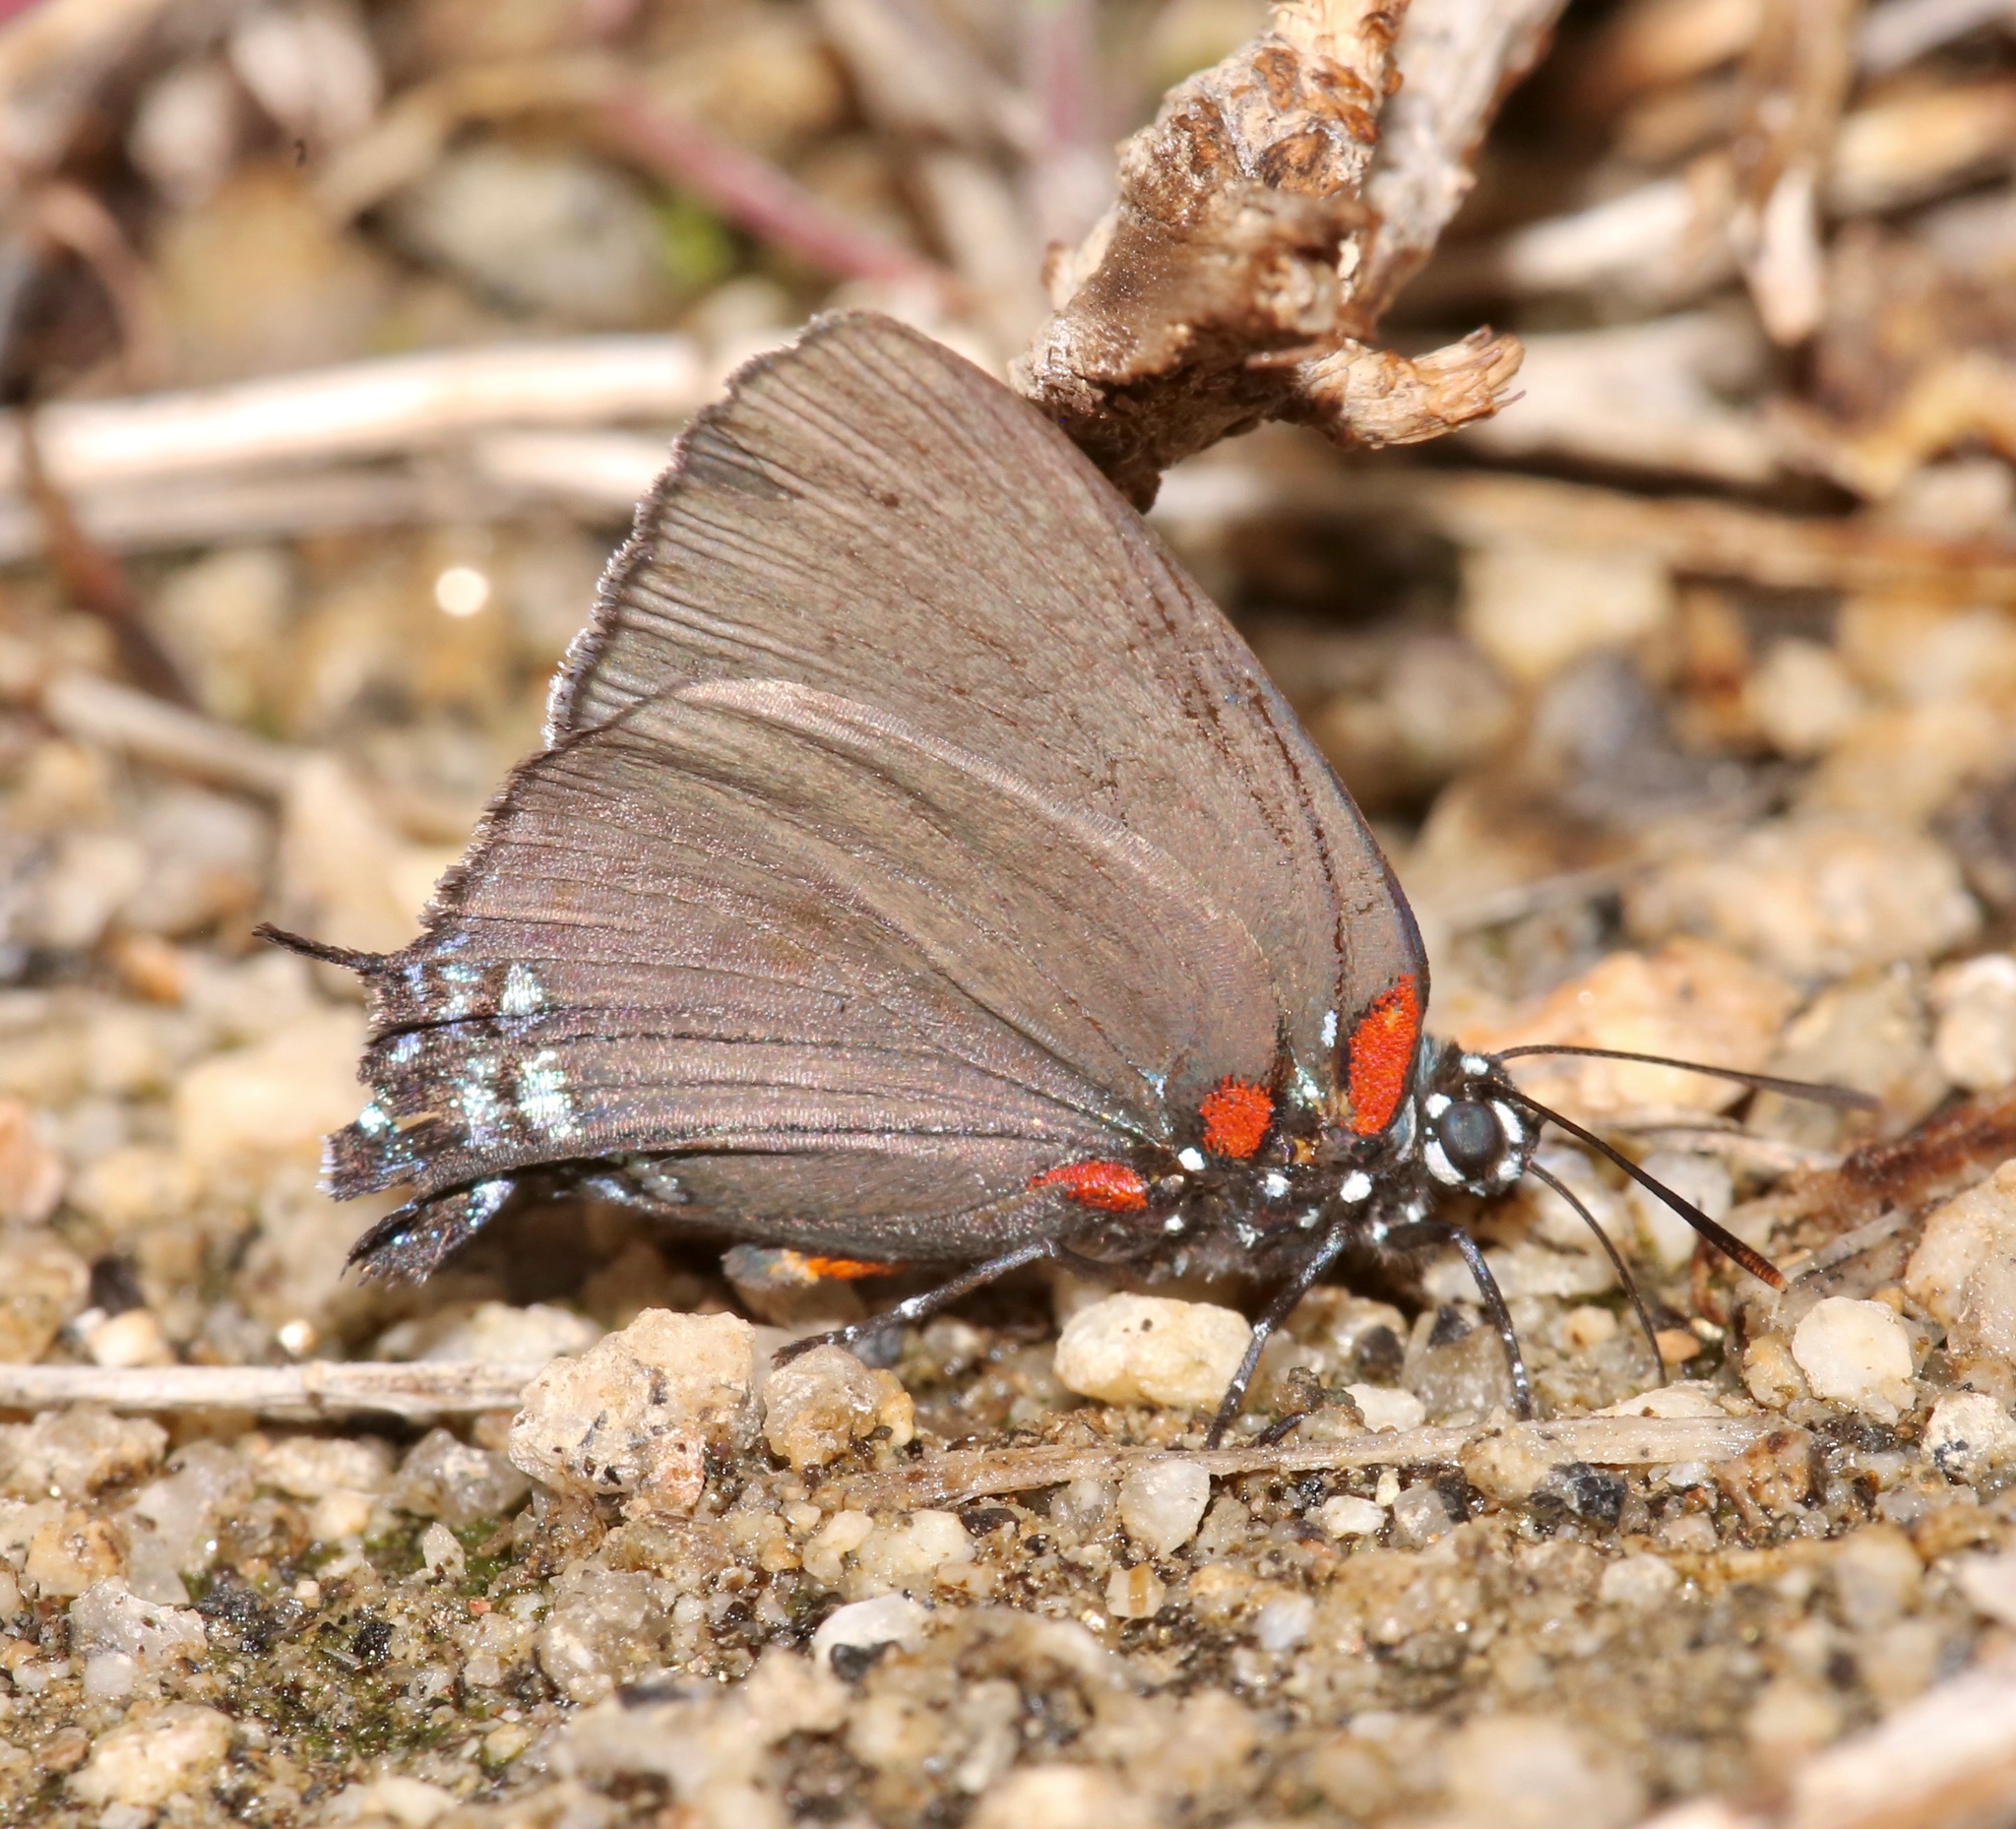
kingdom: Animalia
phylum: Arthropoda
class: Insecta
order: Lepidoptera
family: Lycaenidae
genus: Atlides
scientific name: Atlides halesus
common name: Great purple hairstreak
